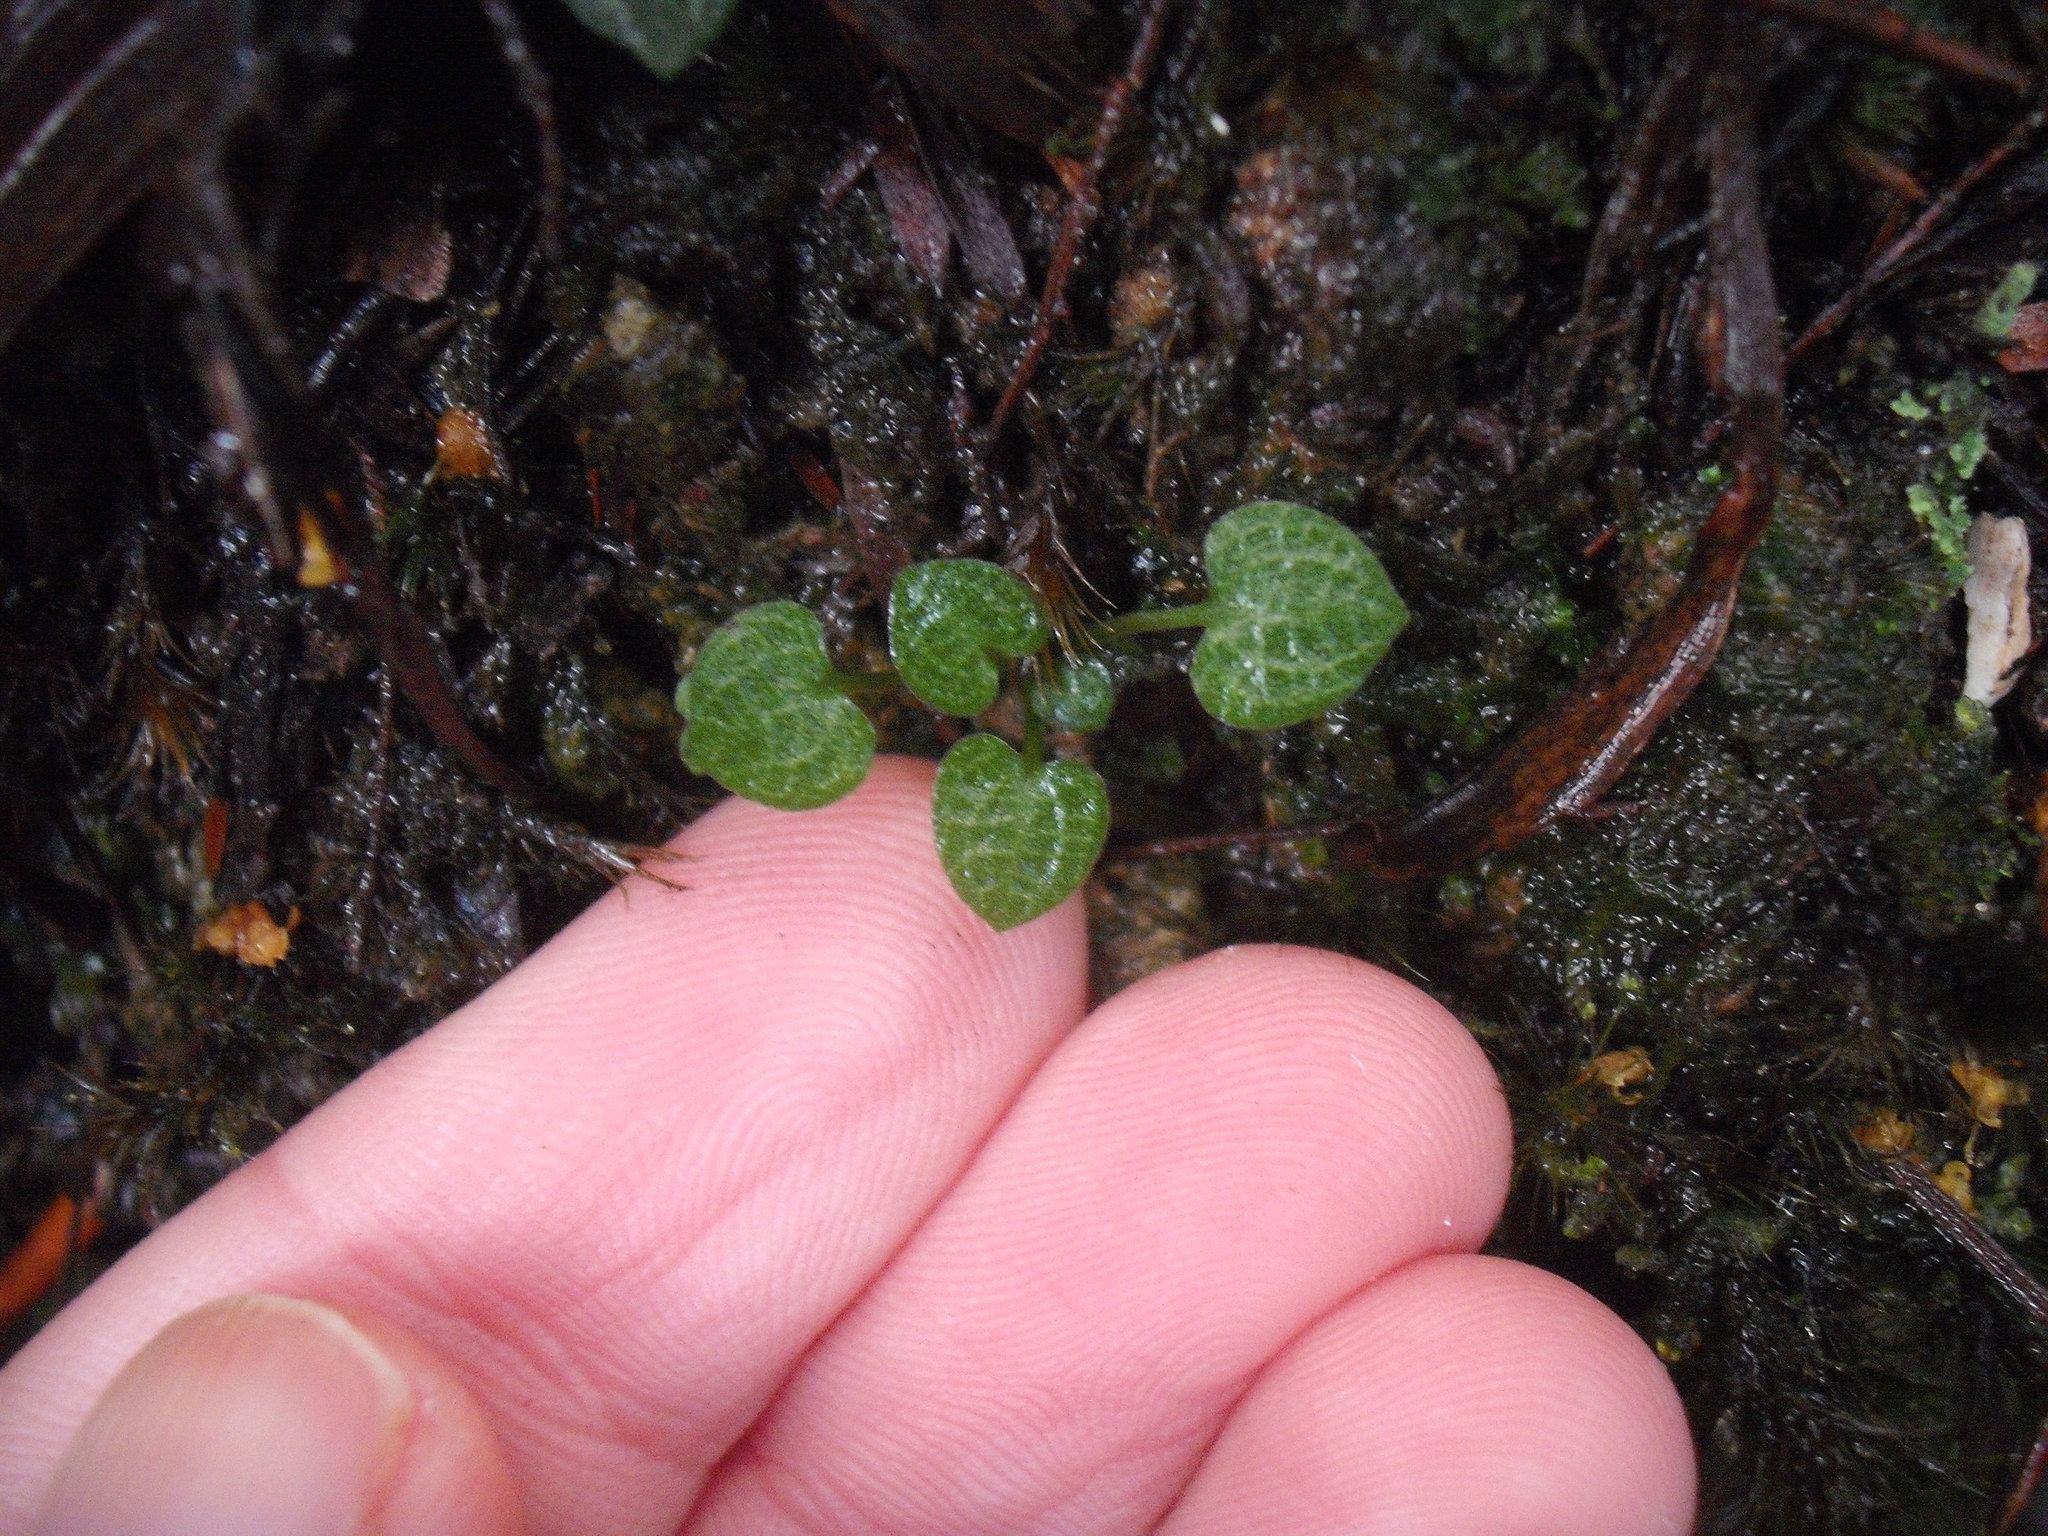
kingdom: Plantae
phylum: Tracheophyta
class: Liliopsida
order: Asparagales
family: Orchidaceae
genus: Pterostylis
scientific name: Pterostylis trullifolia
